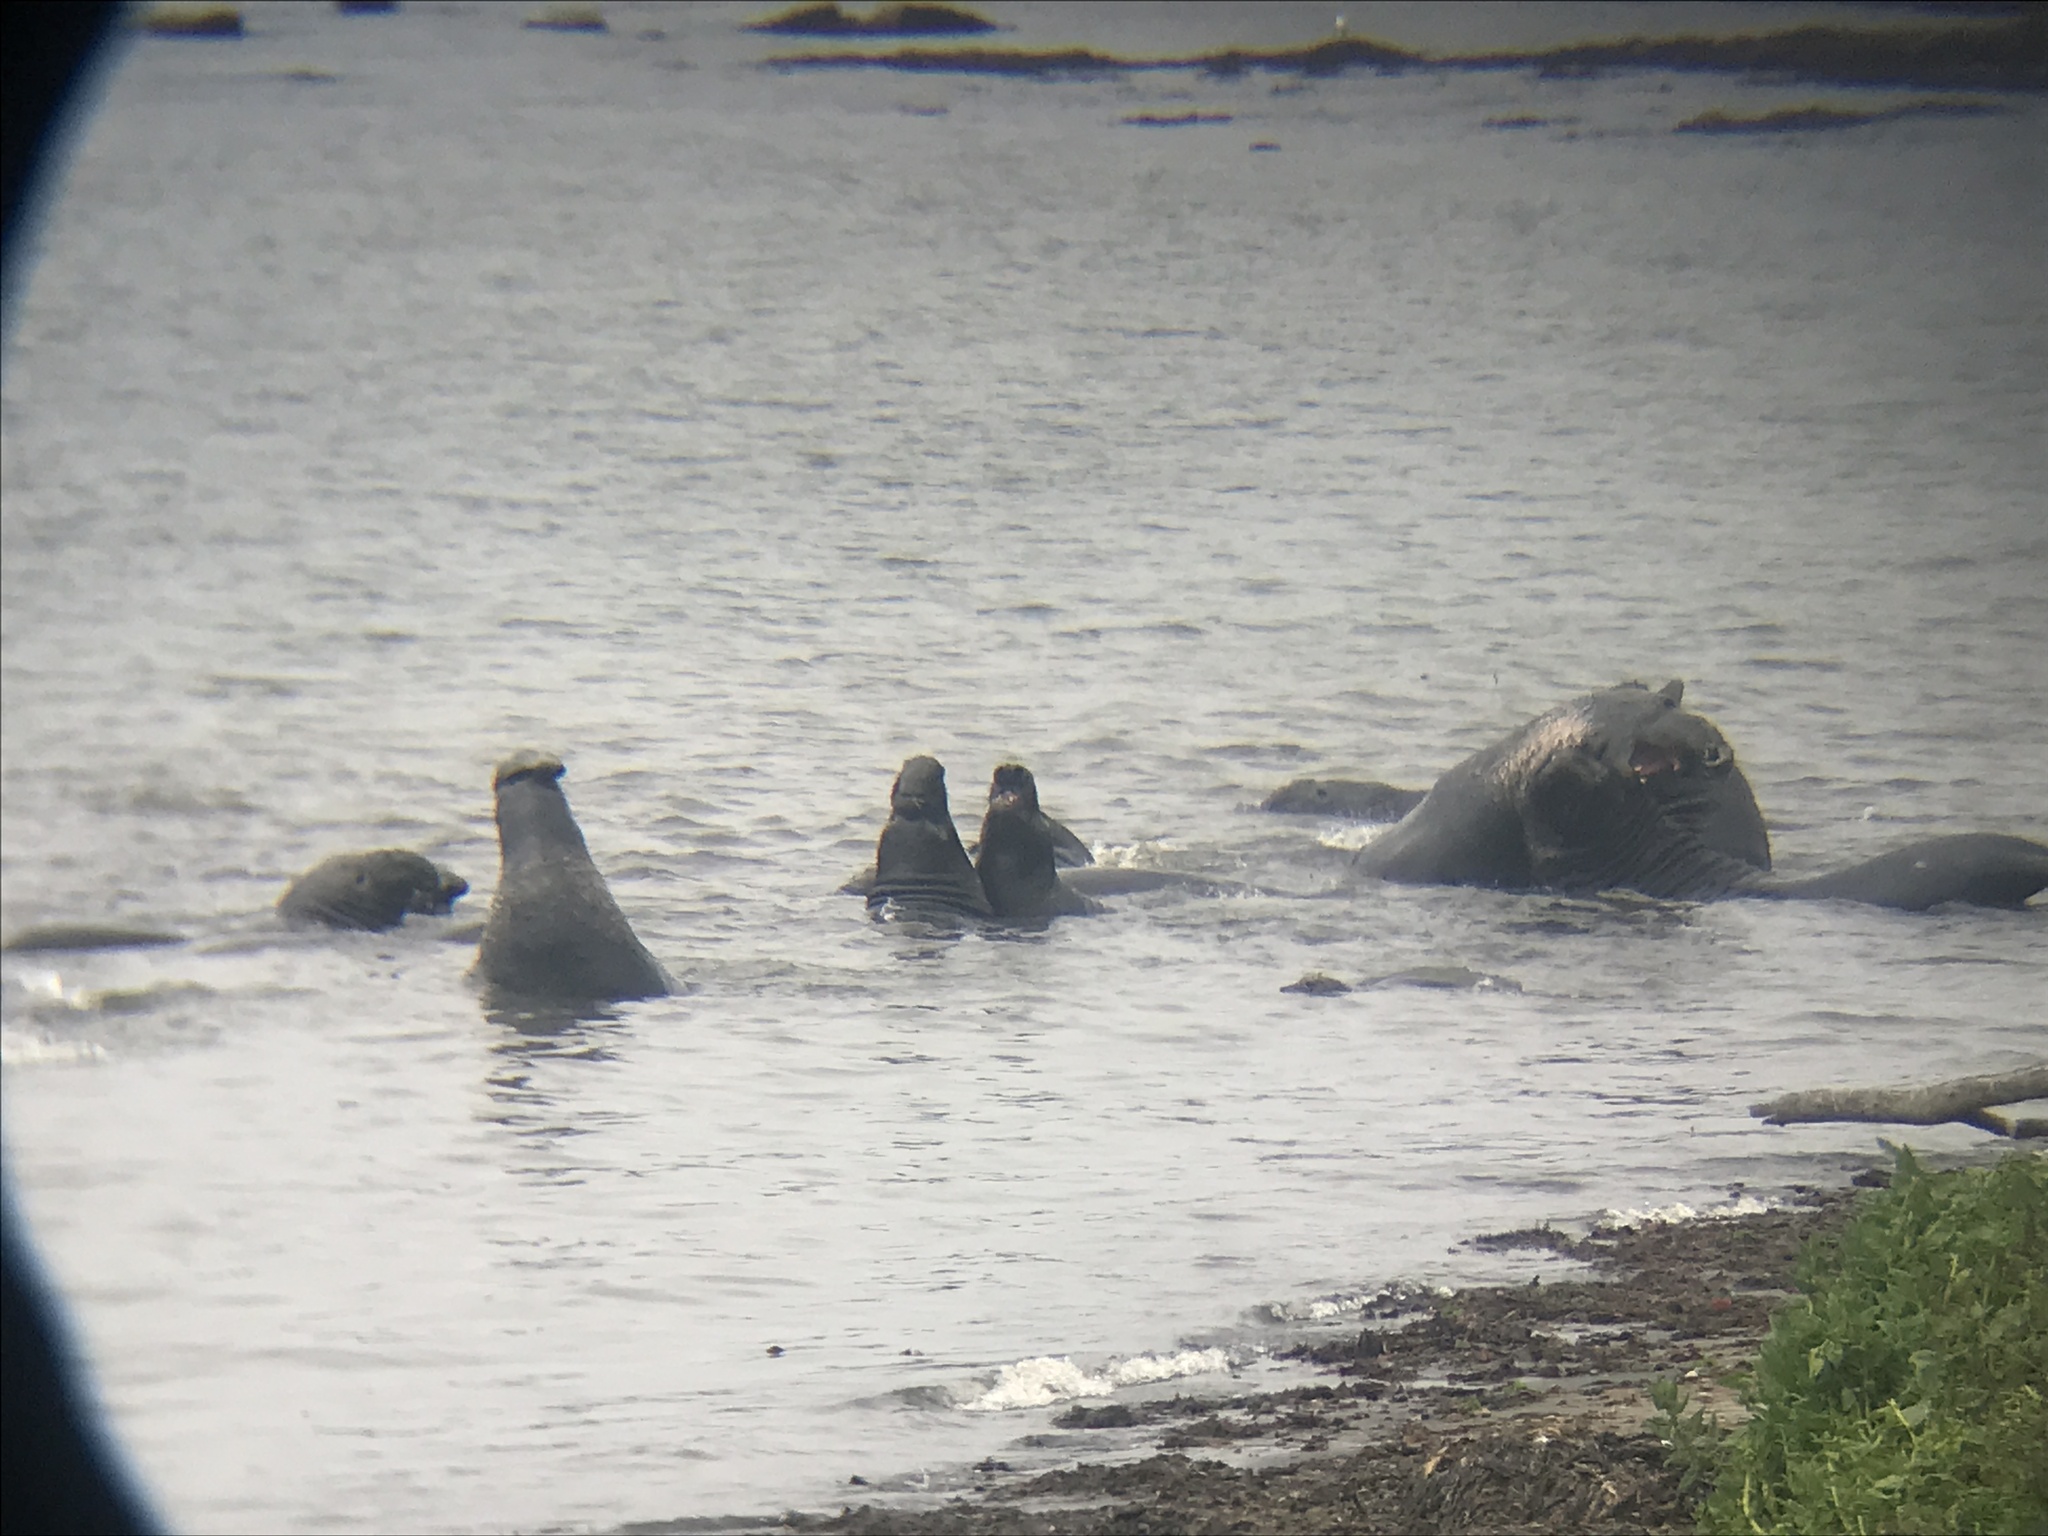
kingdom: Animalia
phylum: Chordata
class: Mammalia
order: Carnivora
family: Phocidae
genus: Mirounga
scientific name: Mirounga angustirostris
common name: Northern elephant seal
